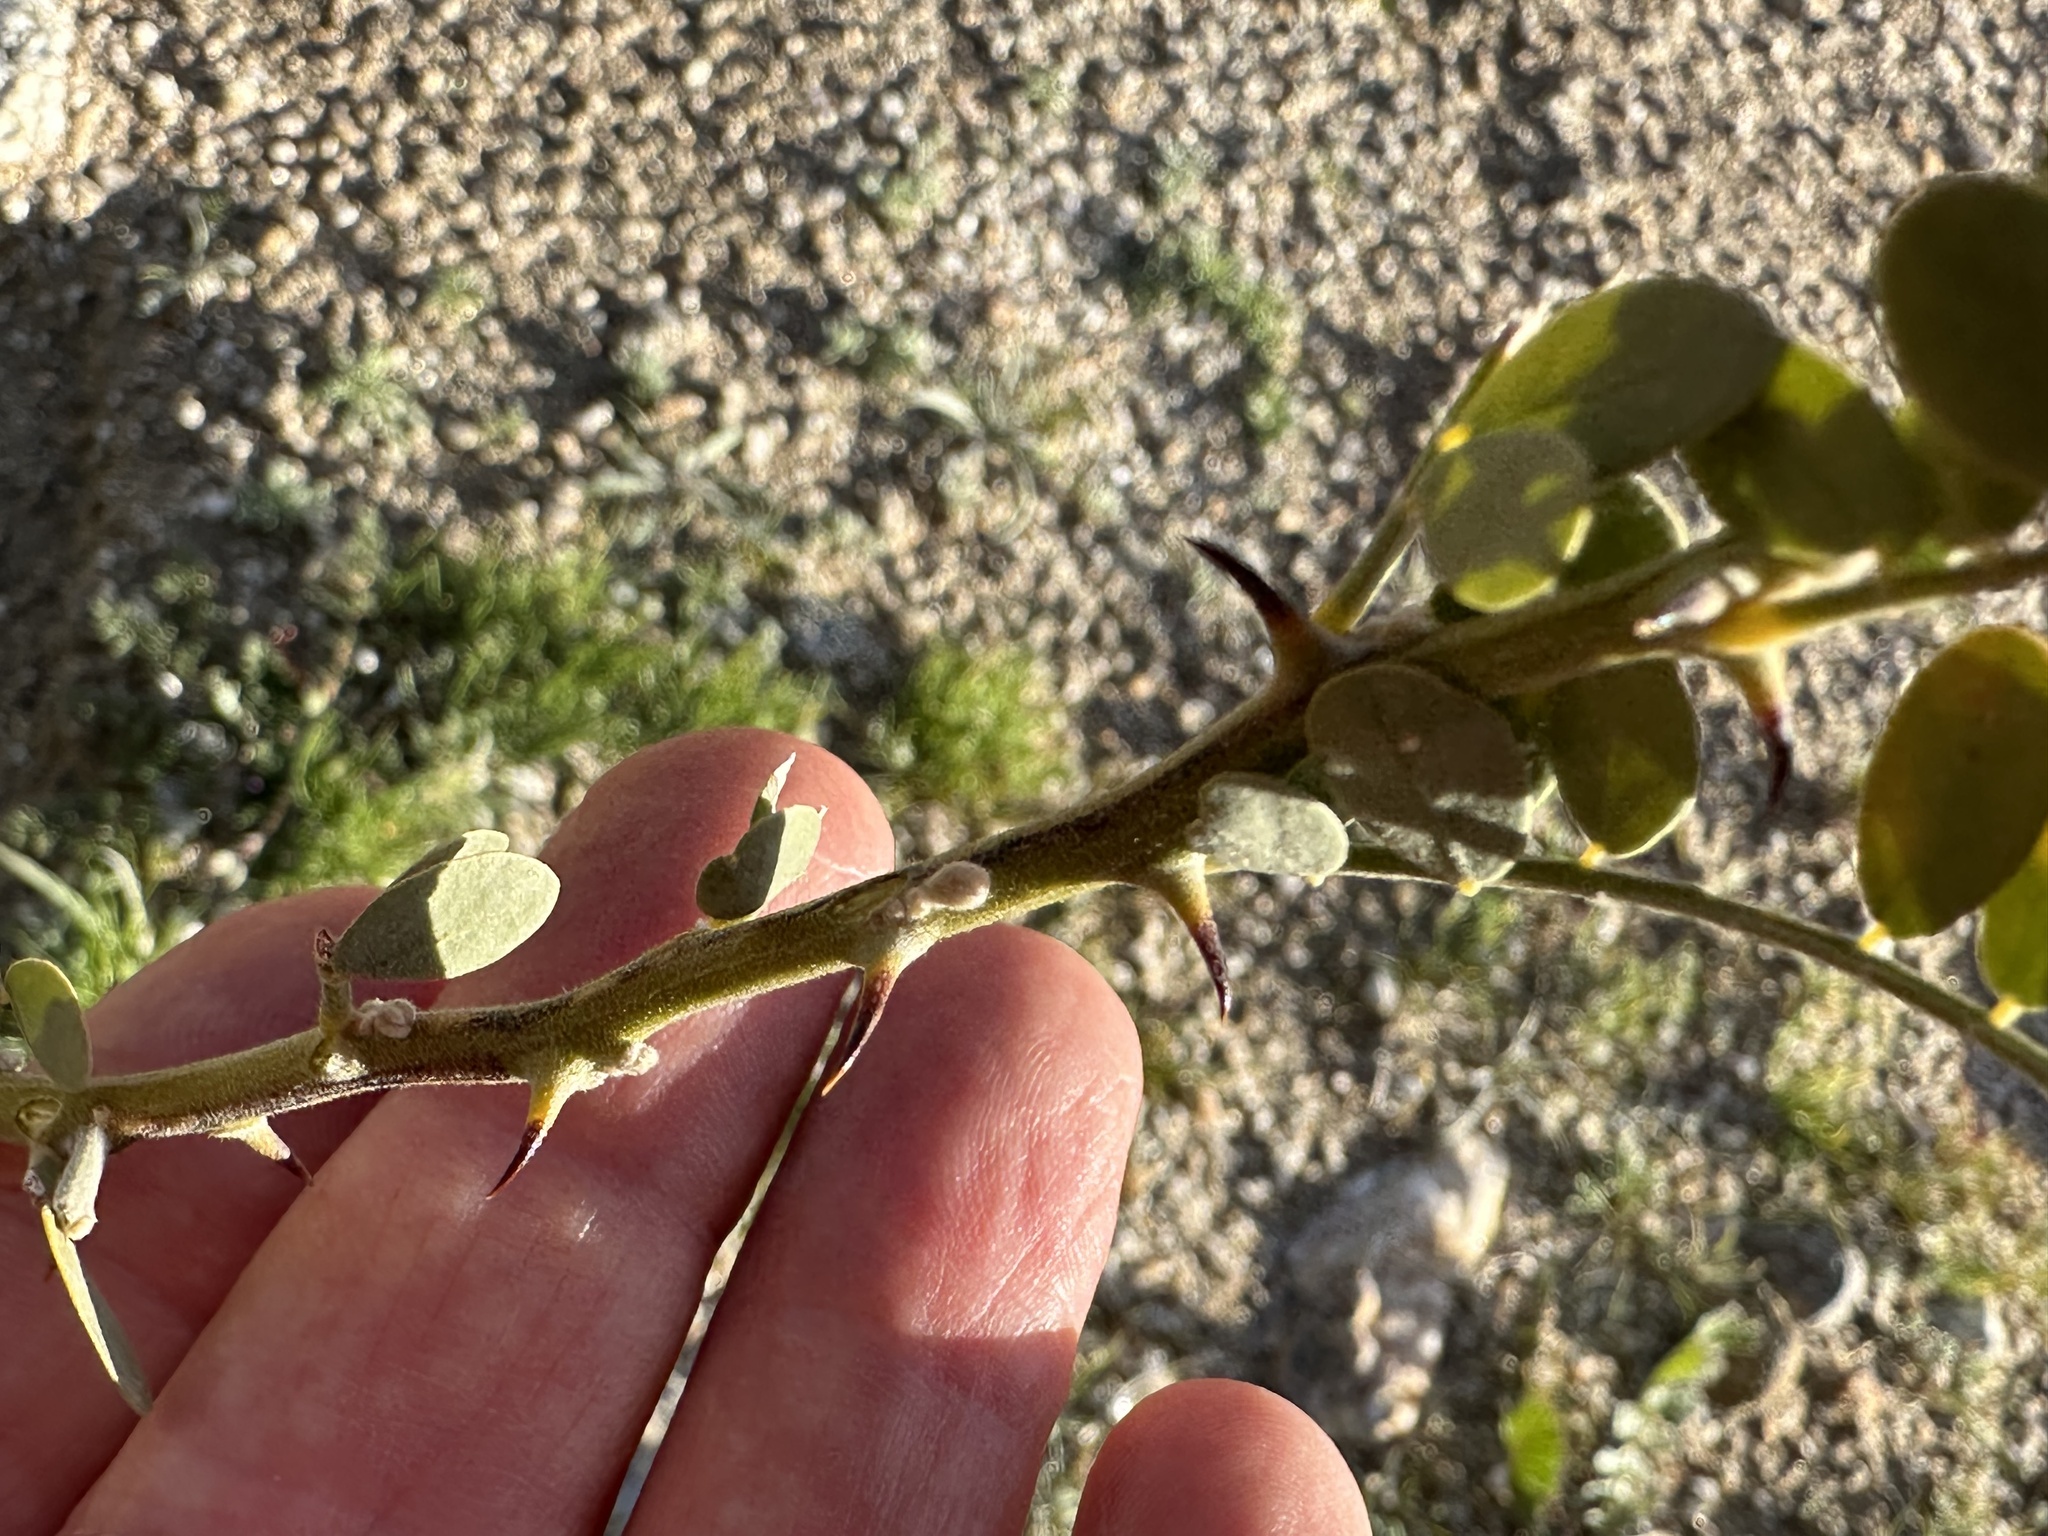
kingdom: Plantae
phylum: Tracheophyta
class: Magnoliopsida
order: Fabales
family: Fabaceae
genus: Olneya
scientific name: Olneya tesota
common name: Desert ironwood
